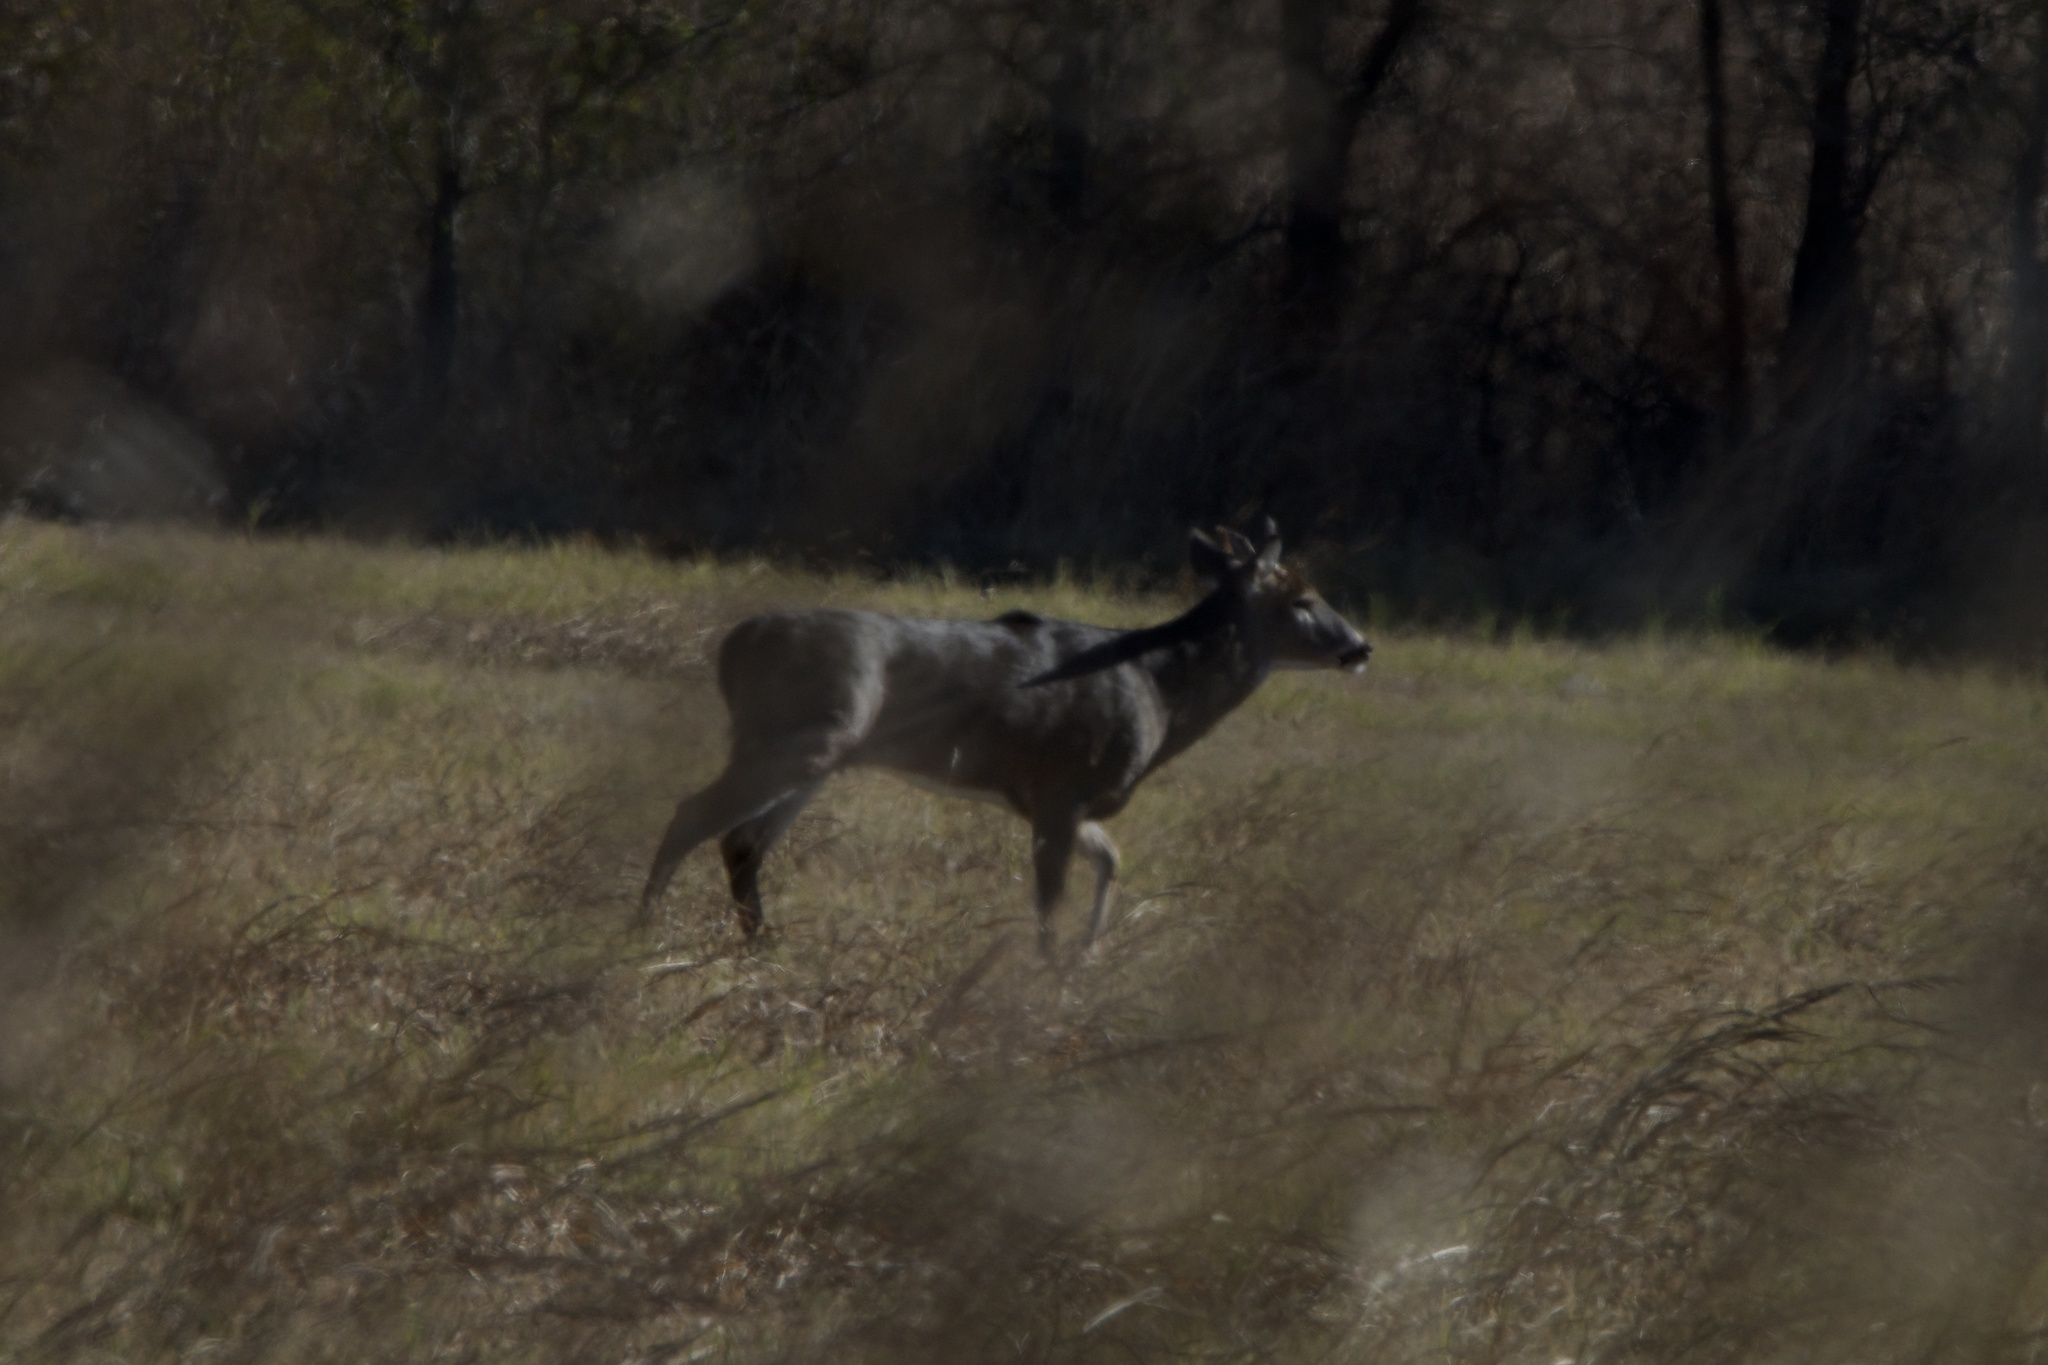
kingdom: Animalia
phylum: Chordata
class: Mammalia
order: Artiodactyla
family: Cervidae
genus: Odocoileus
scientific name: Odocoileus virginianus
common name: White-tailed deer
